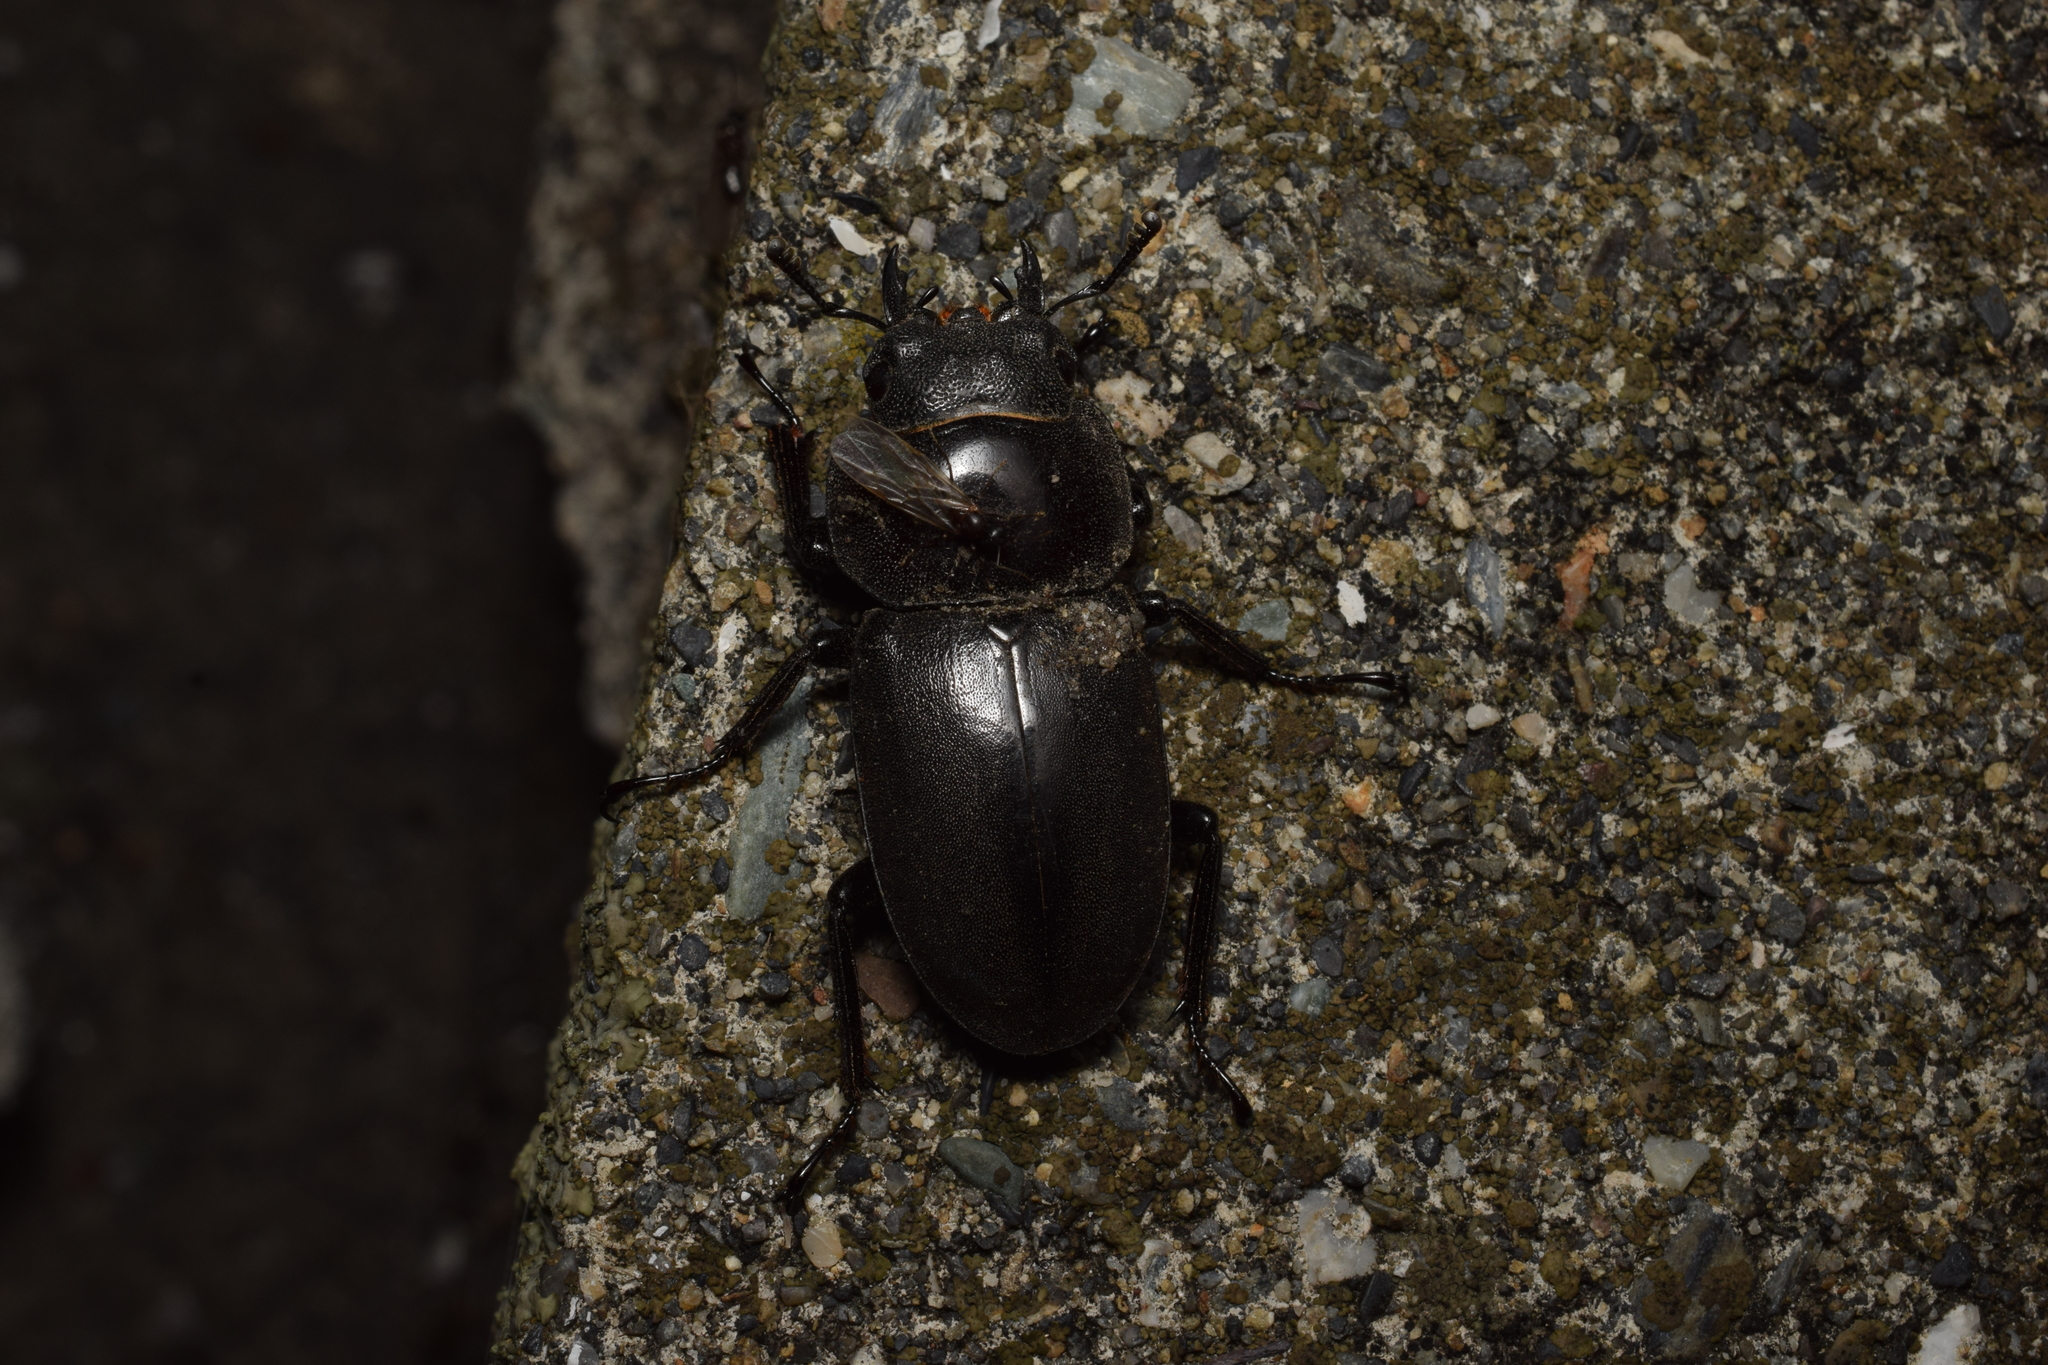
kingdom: Animalia
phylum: Arthropoda
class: Insecta
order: Coleoptera
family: Lucanidae
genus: Dorcus
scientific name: Dorcus rectus
